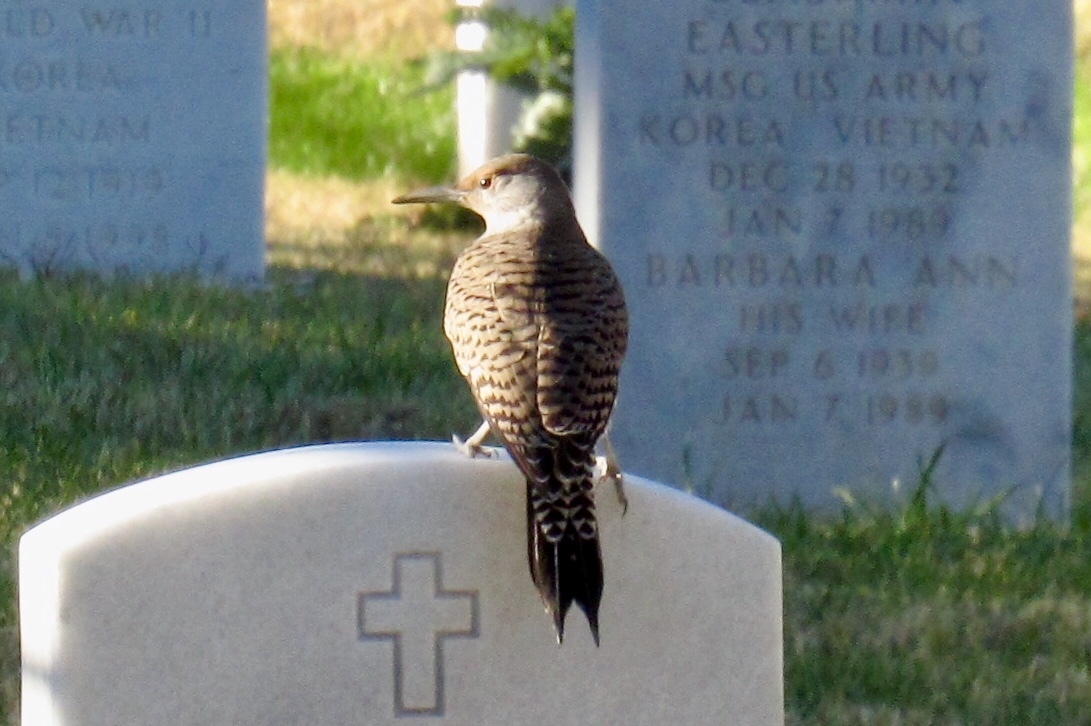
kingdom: Animalia
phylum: Chordata
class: Aves
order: Piciformes
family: Picidae
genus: Colaptes
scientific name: Colaptes auratus
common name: Northern flicker
